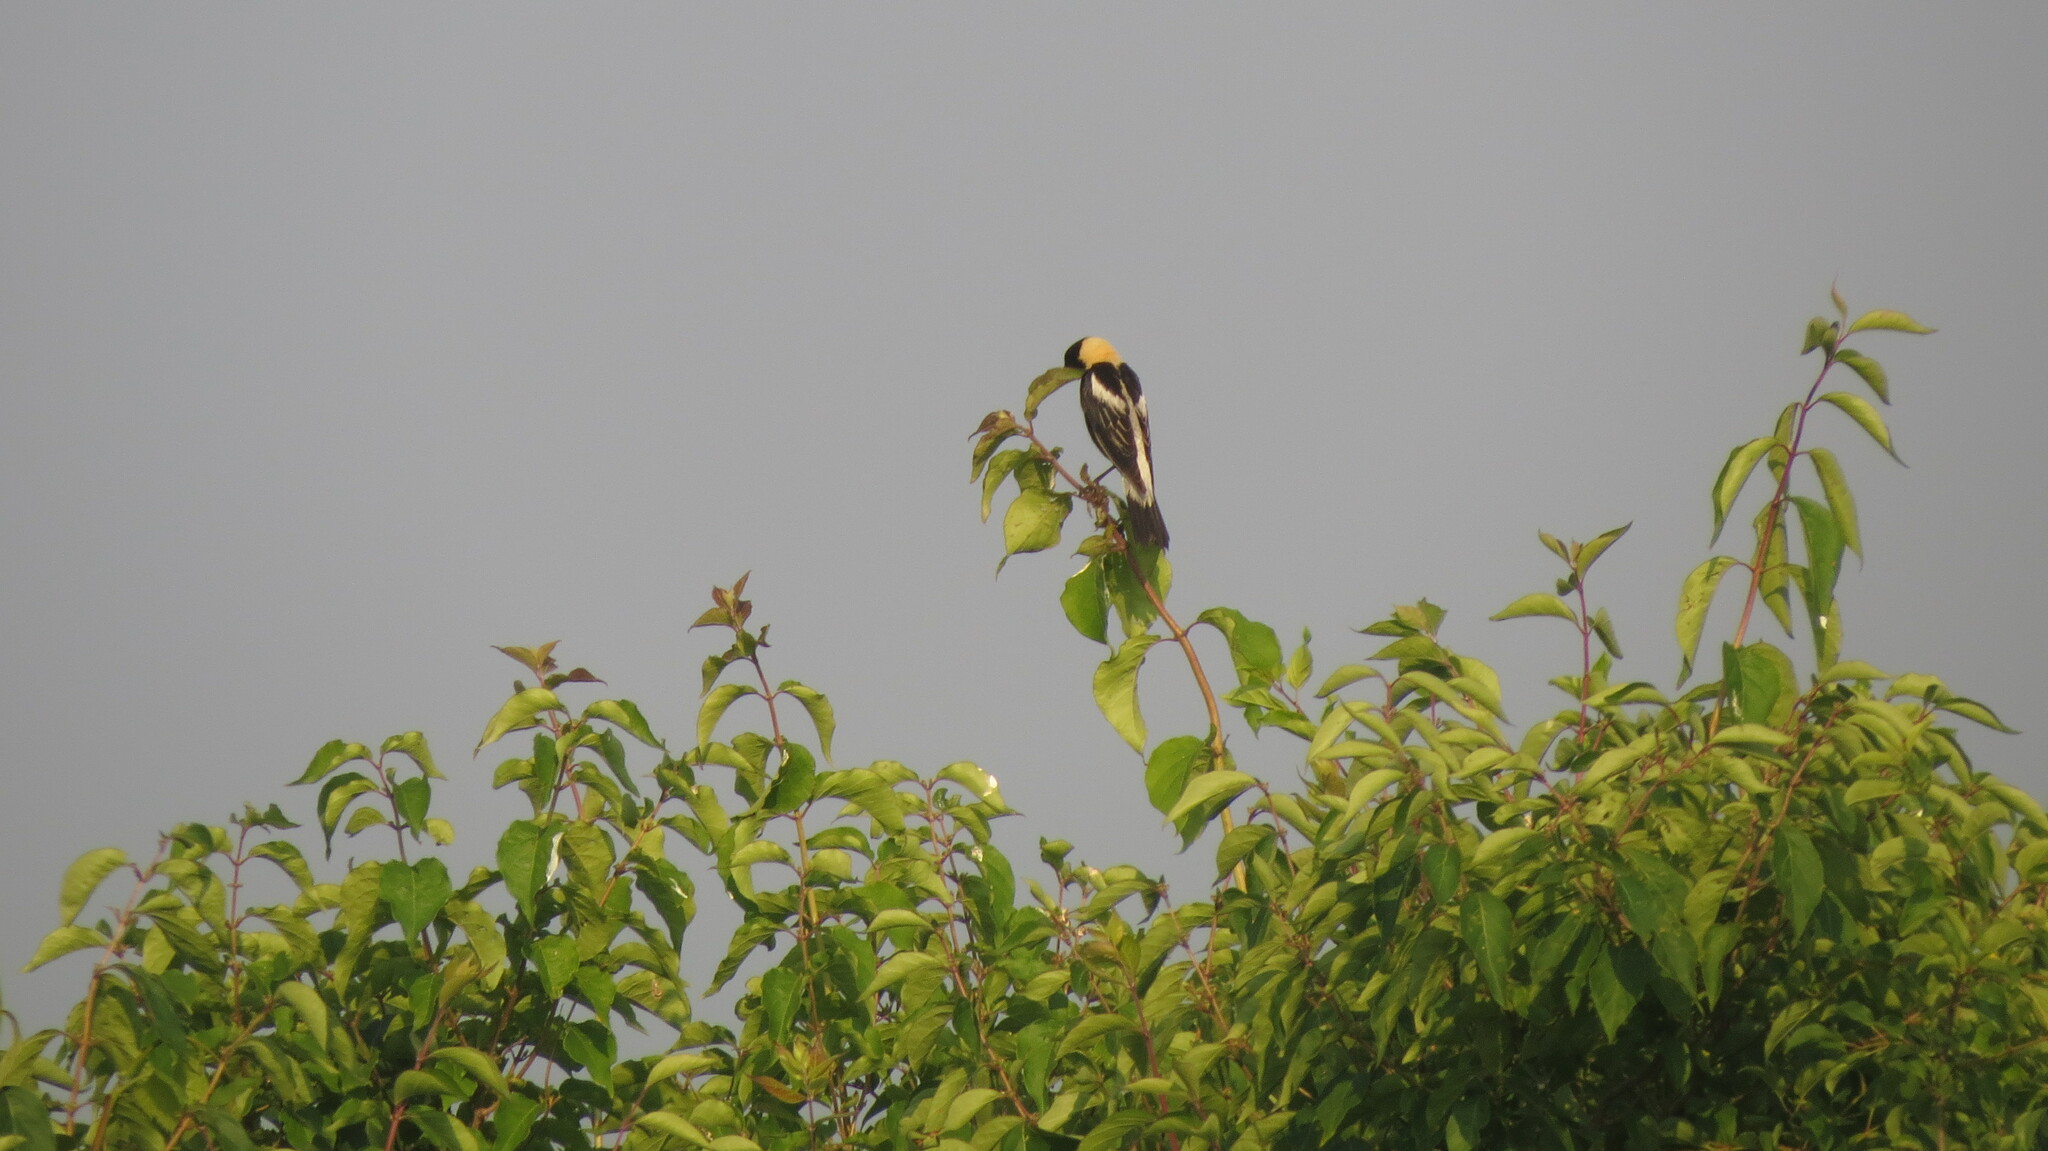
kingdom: Animalia
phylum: Chordata
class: Aves
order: Passeriformes
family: Icteridae
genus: Dolichonyx
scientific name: Dolichonyx oryzivorus
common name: Bobolink
